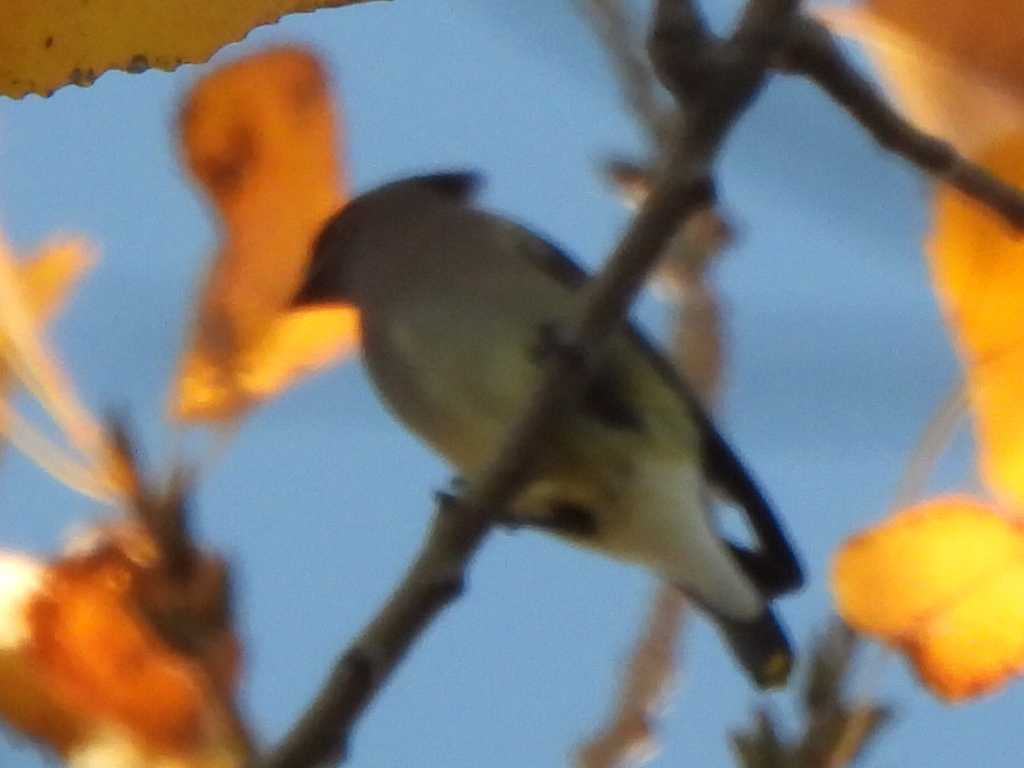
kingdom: Animalia
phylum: Chordata
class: Aves
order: Passeriformes
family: Bombycillidae
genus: Bombycilla
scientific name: Bombycilla cedrorum
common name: Cedar waxwing
